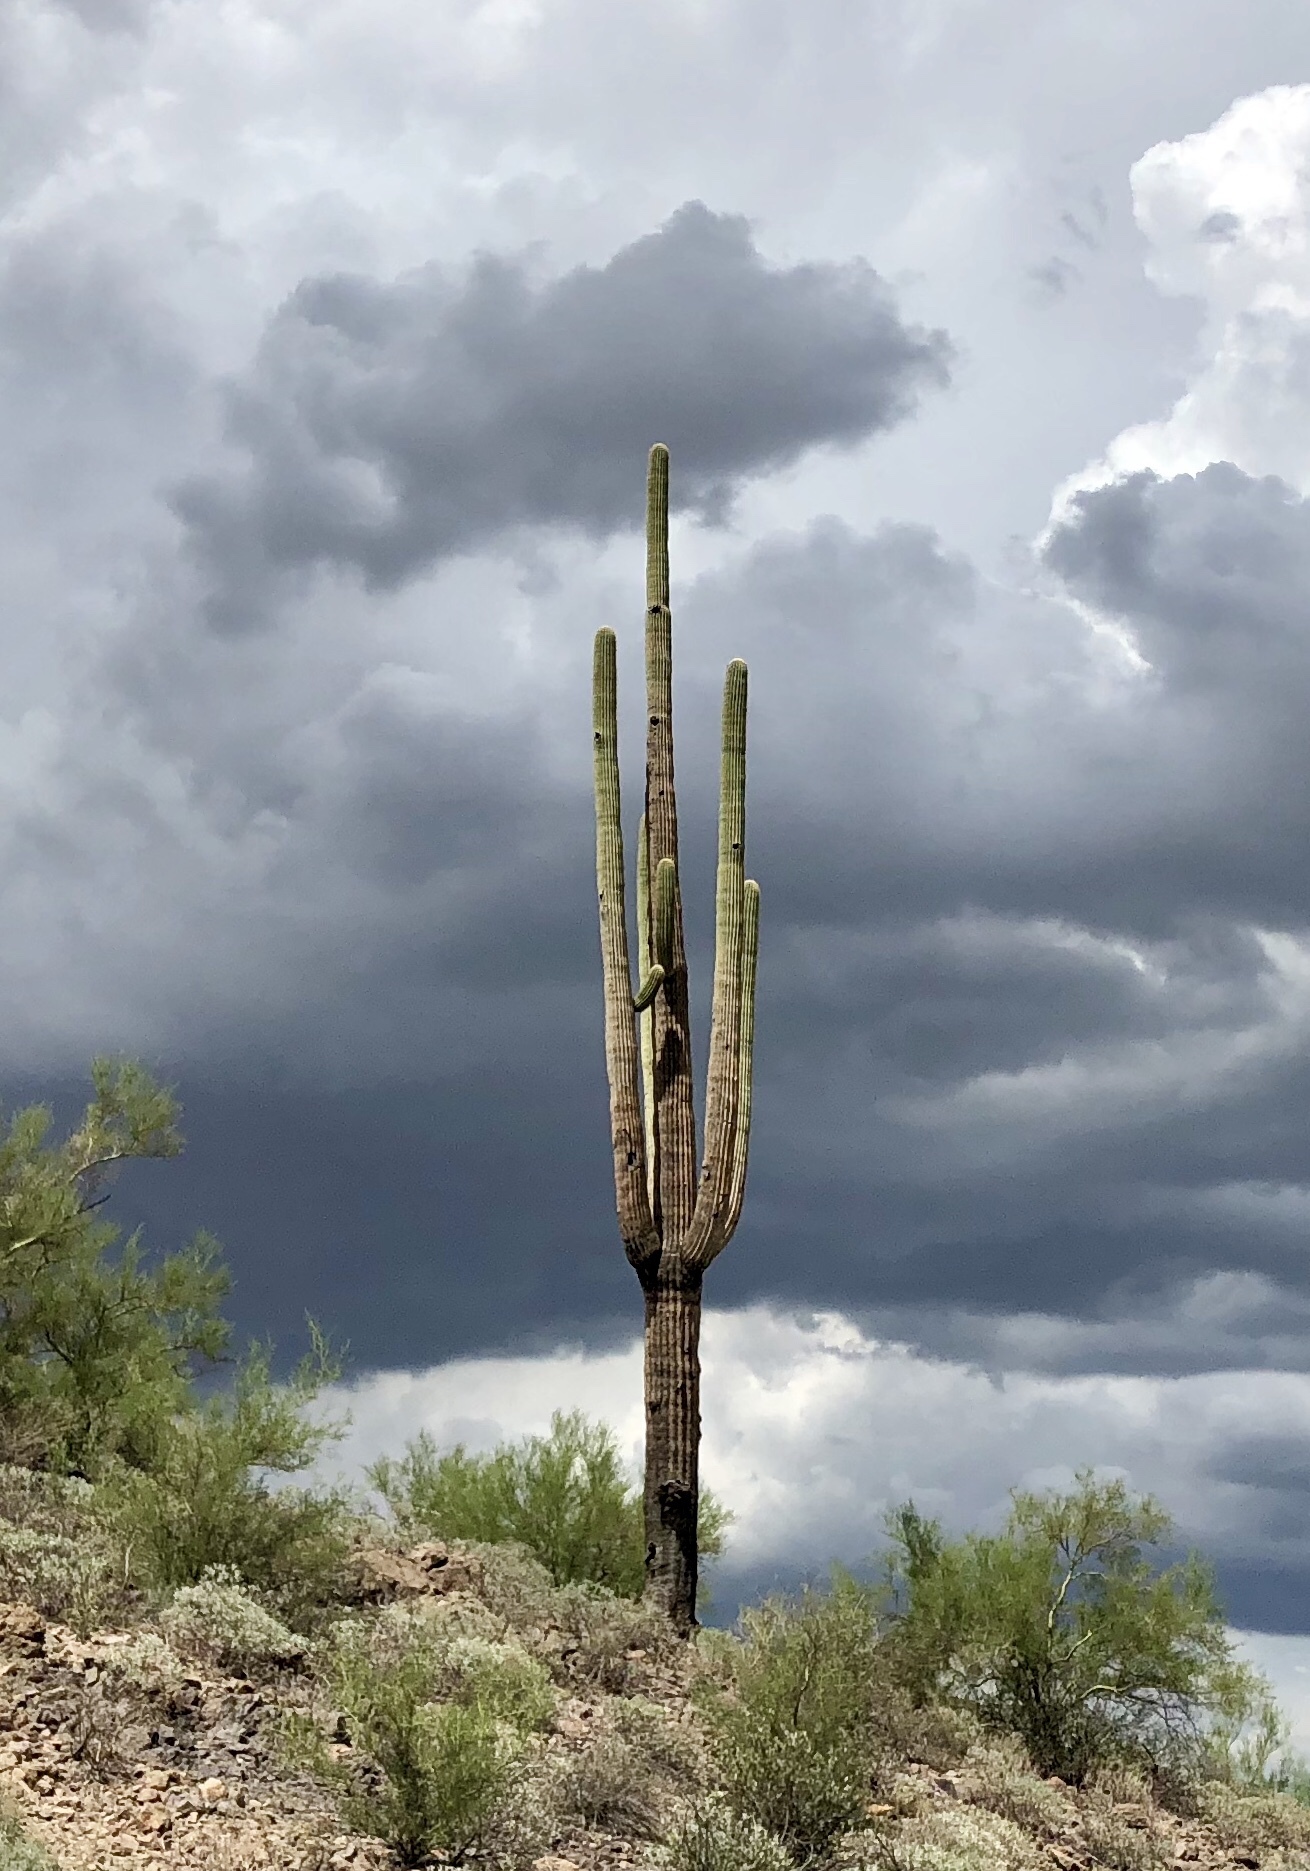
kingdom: Plantae
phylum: Tracheophyta
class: Magnoliopsida
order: Caryophyllales
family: Cactaceae
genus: Carnegiea
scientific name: Carnegiea gigantea
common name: Saguaro
